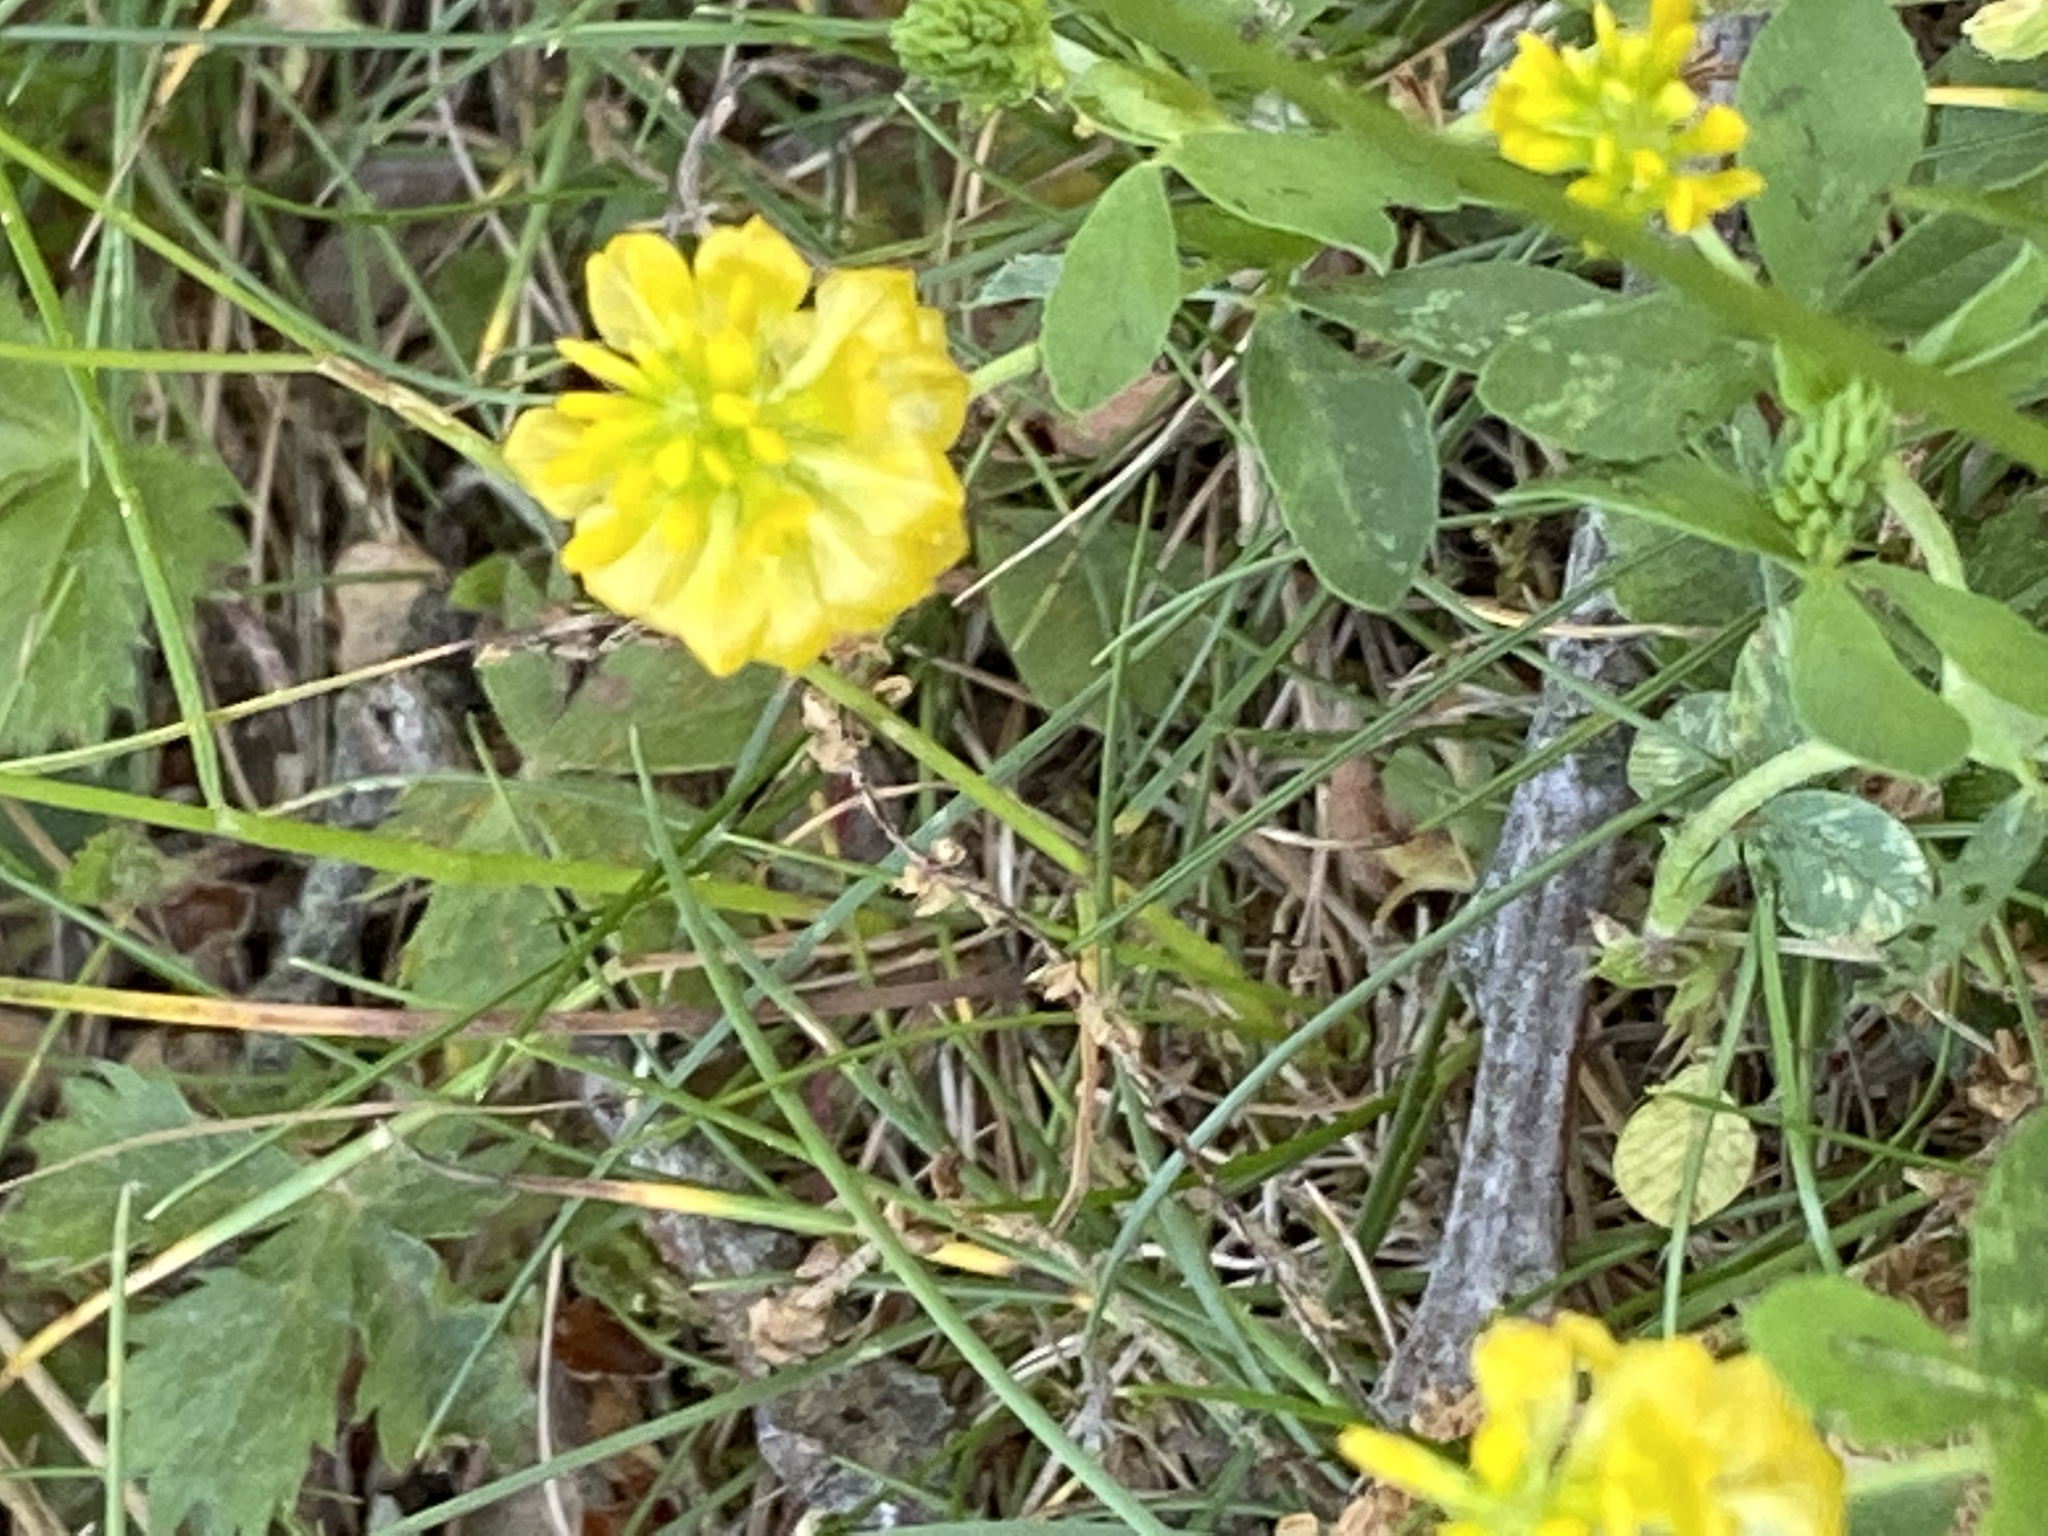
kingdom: Plantae
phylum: Tracheophyta
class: Magnoliopsida
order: Fabales
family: Fabaceae
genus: Trifolium
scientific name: Trifolium aureum
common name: Golden clover
